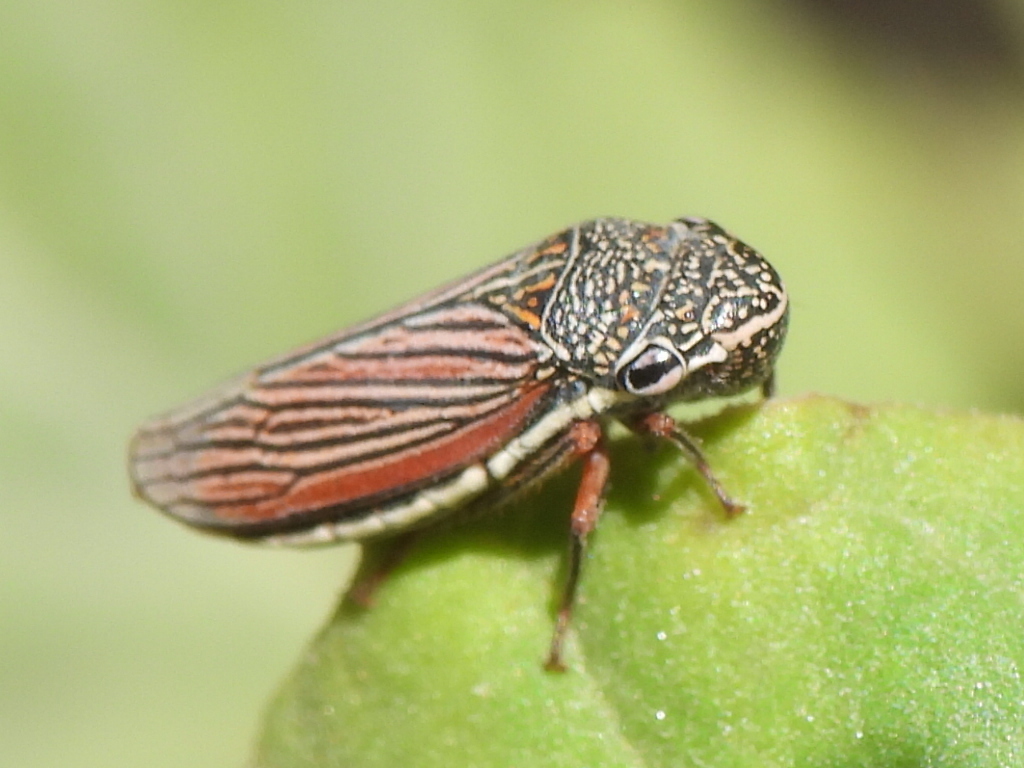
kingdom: Animalia
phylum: Arthropoda
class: Insecta
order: Hemiptera
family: Cicadellidae
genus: Cuerna
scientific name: Cuerna costalis
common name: Lateral-lined sharpshooter
